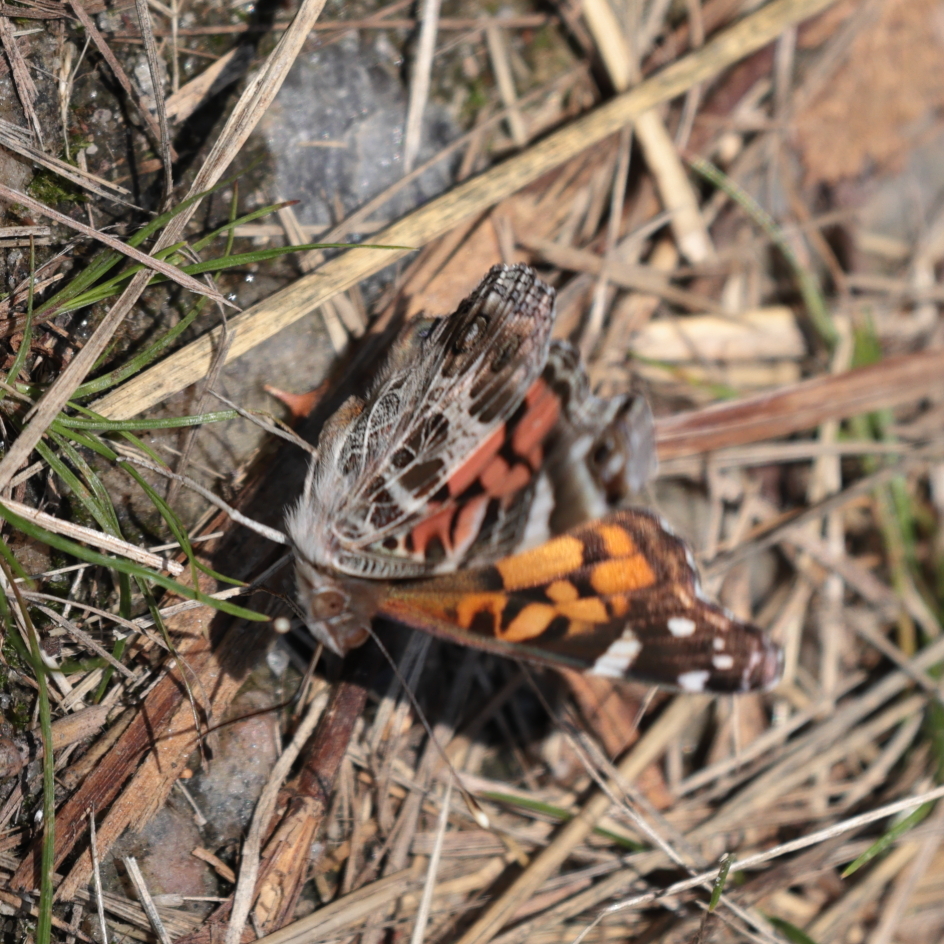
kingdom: Animalia
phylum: Arthropoda
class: Insecta
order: Lepidoptera
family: Nymphalidae
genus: Vanessa
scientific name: Vanessa virginiensis
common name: American lady
